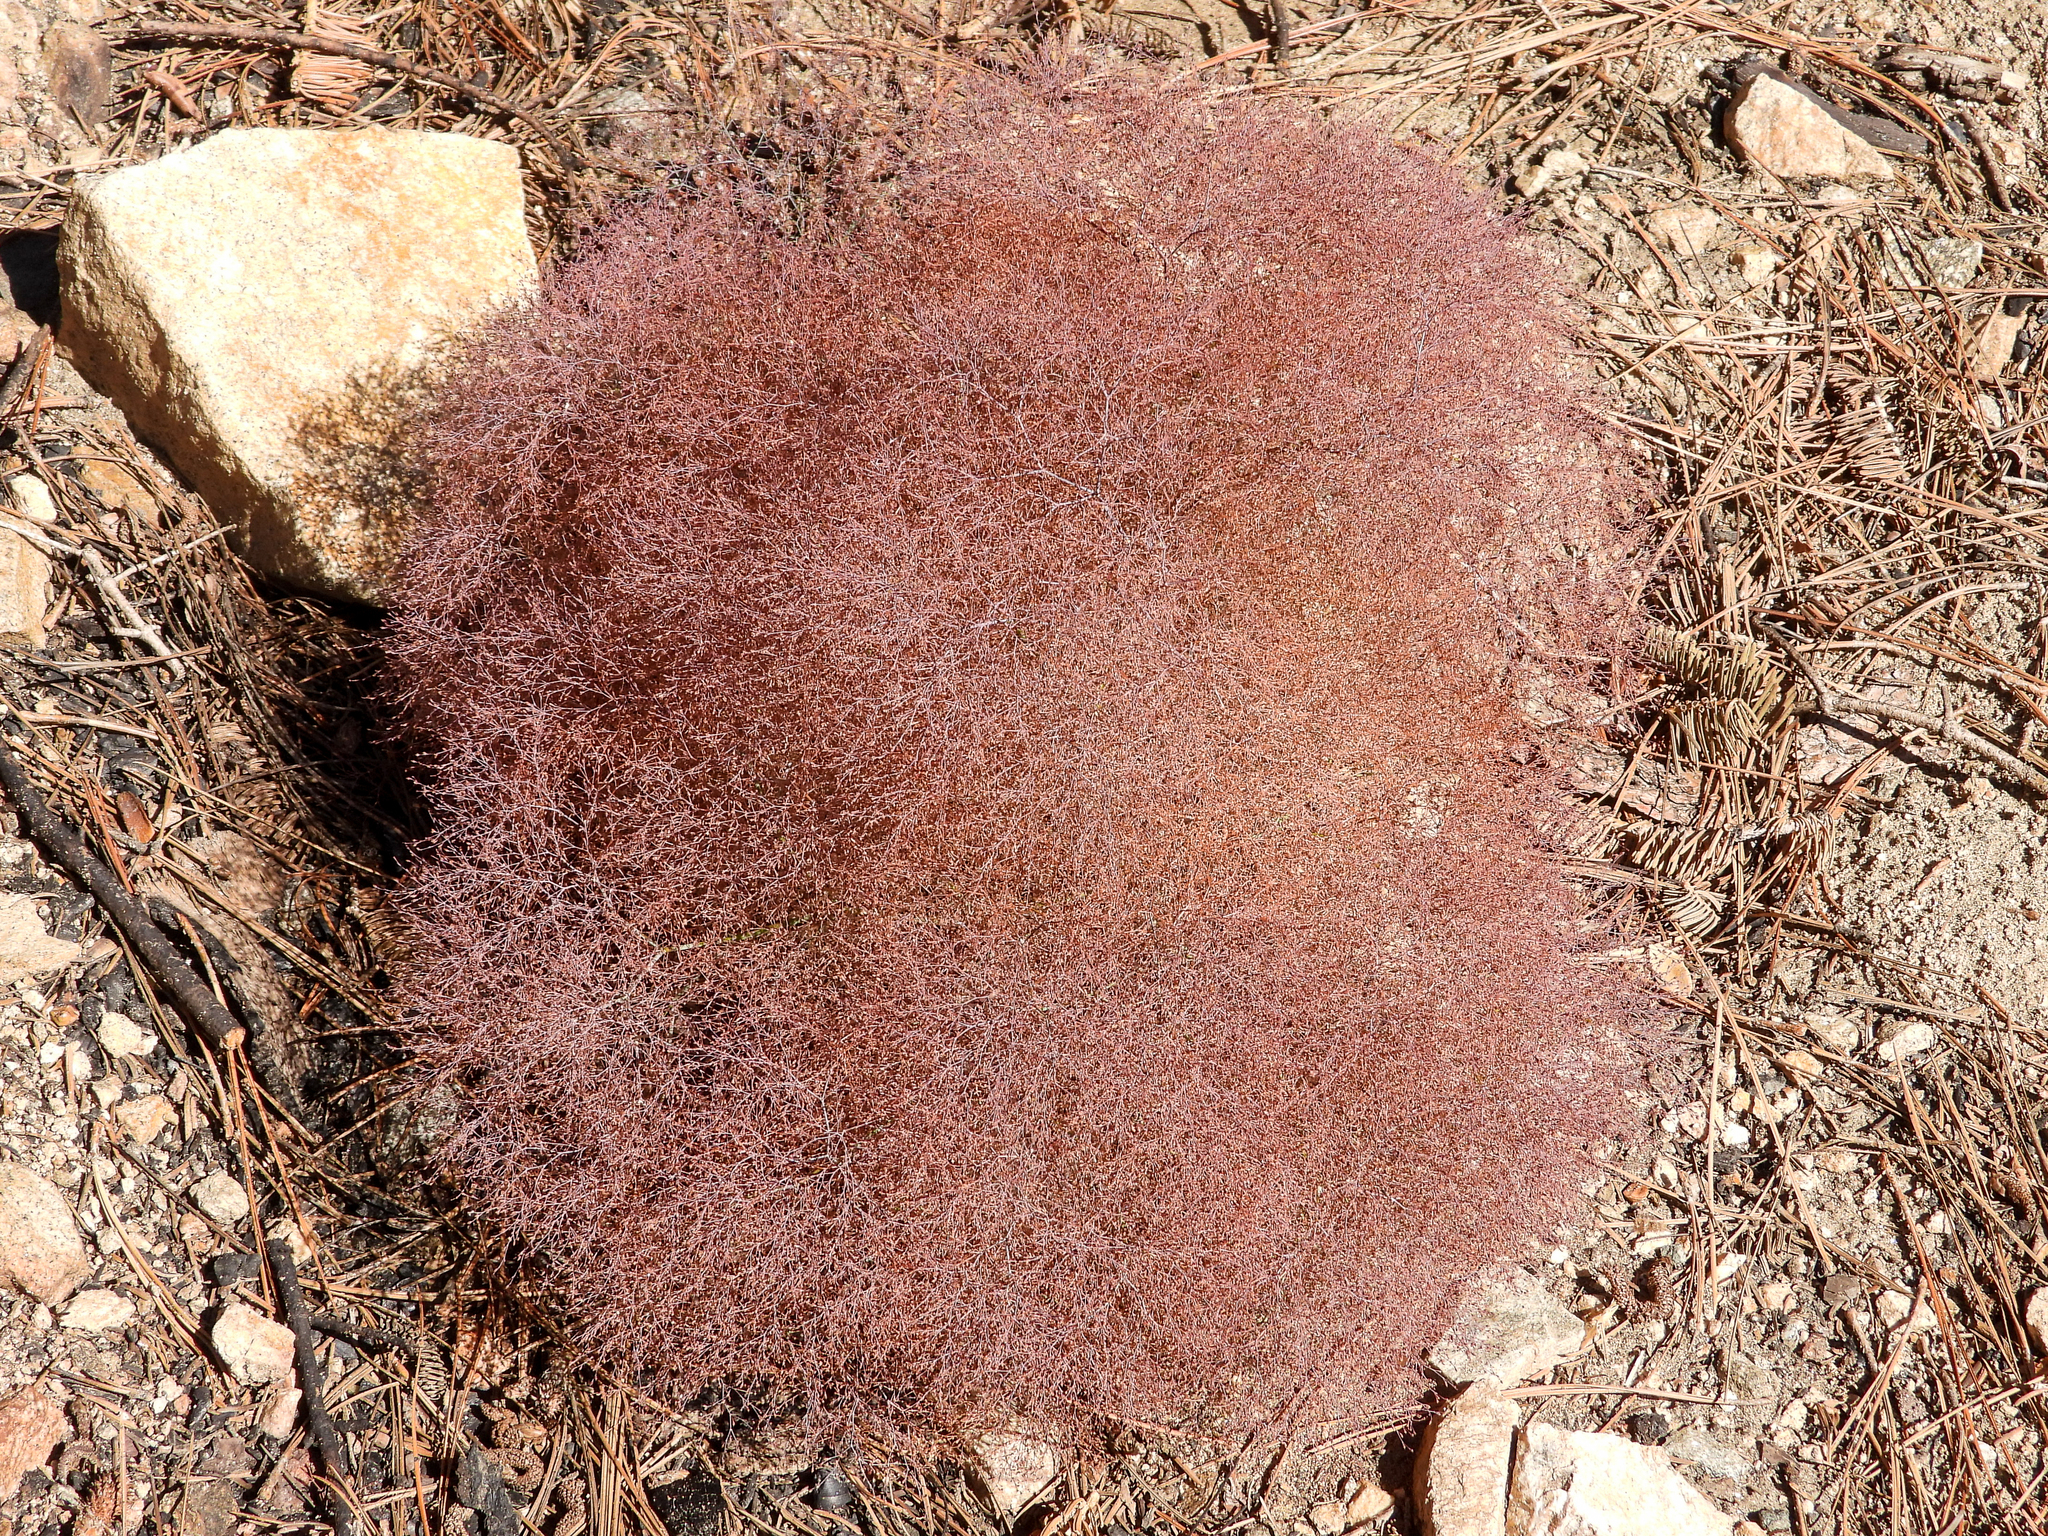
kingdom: Plantae
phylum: Tracheophyta
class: Magnoliopsida
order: Caryophyllales
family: Polygonaceae
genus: Eriogonum
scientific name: Eriogonum parishii
